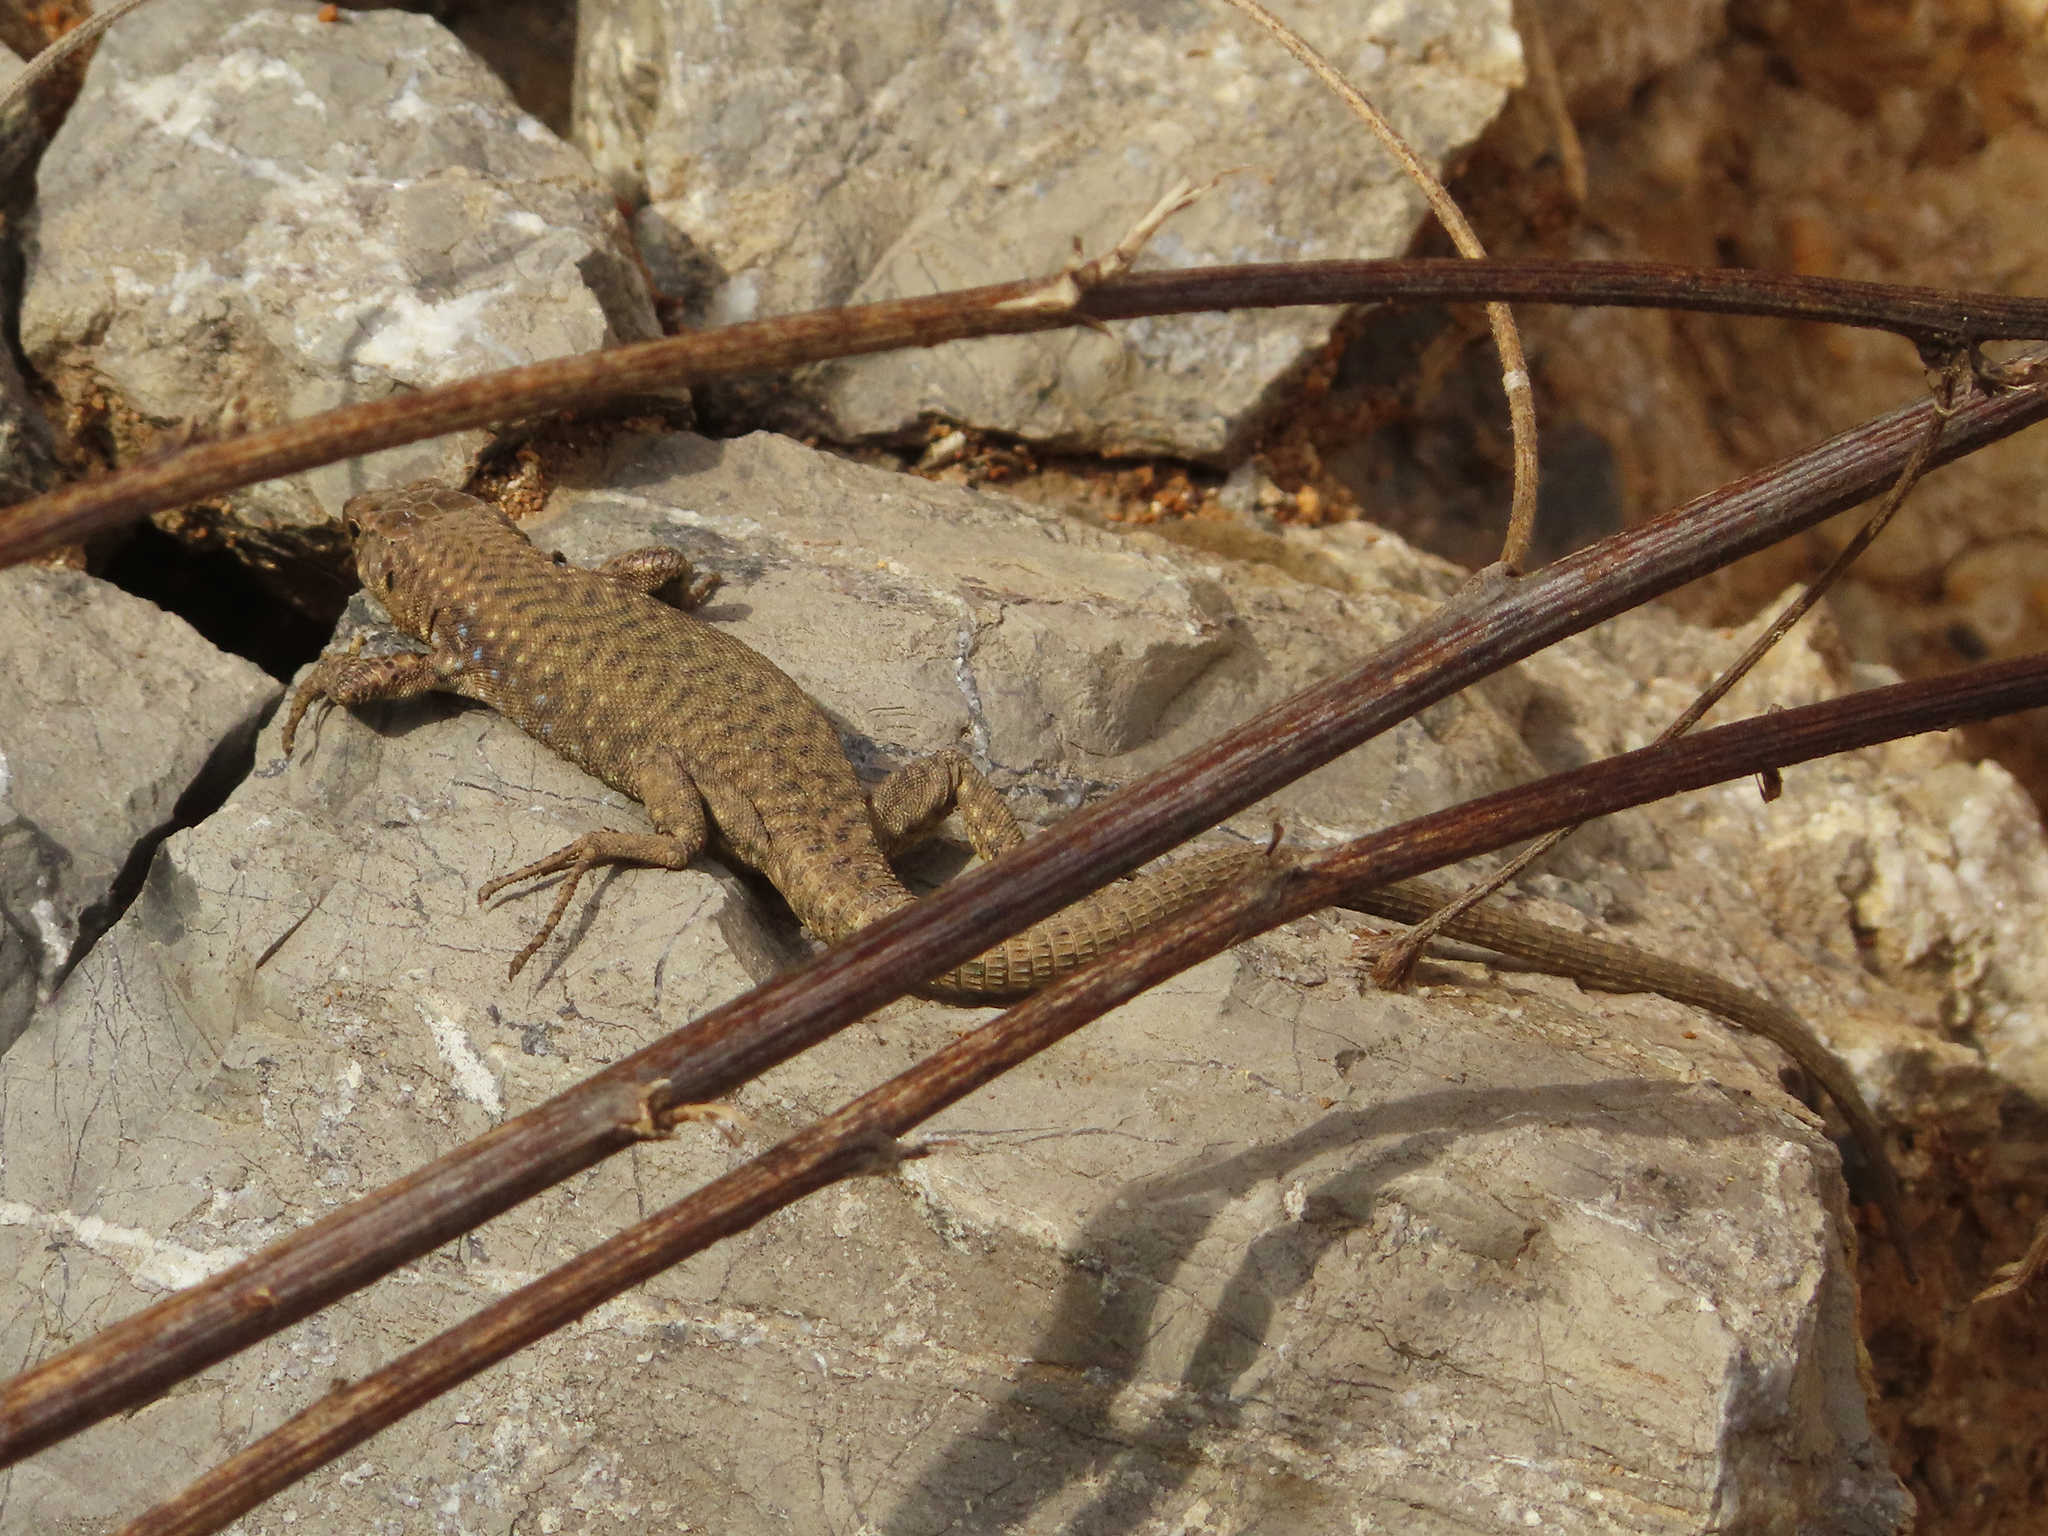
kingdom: Animalia
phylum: Chordata
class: Squamata
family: Lacertidae
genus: Darevskia
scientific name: Darevskia bithynica
